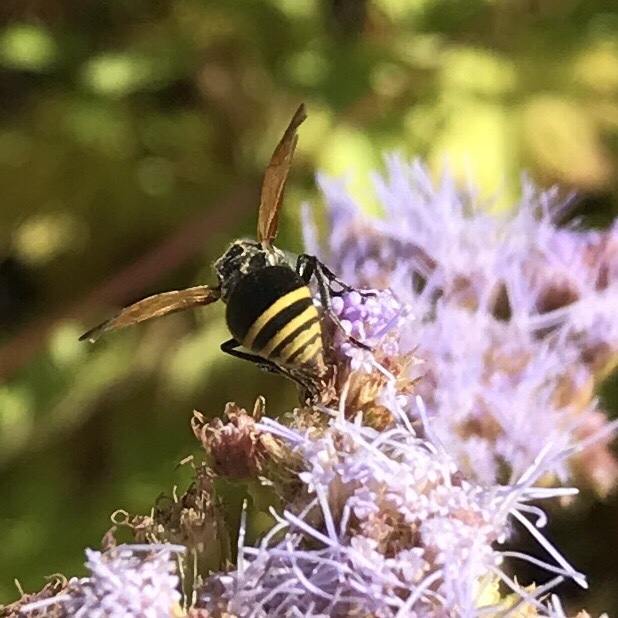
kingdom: Animalia
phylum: Arthropoda
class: Insecta
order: Hymenoptera
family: Vespidae
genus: Brachygastra
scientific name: Brachygastra mellifica
